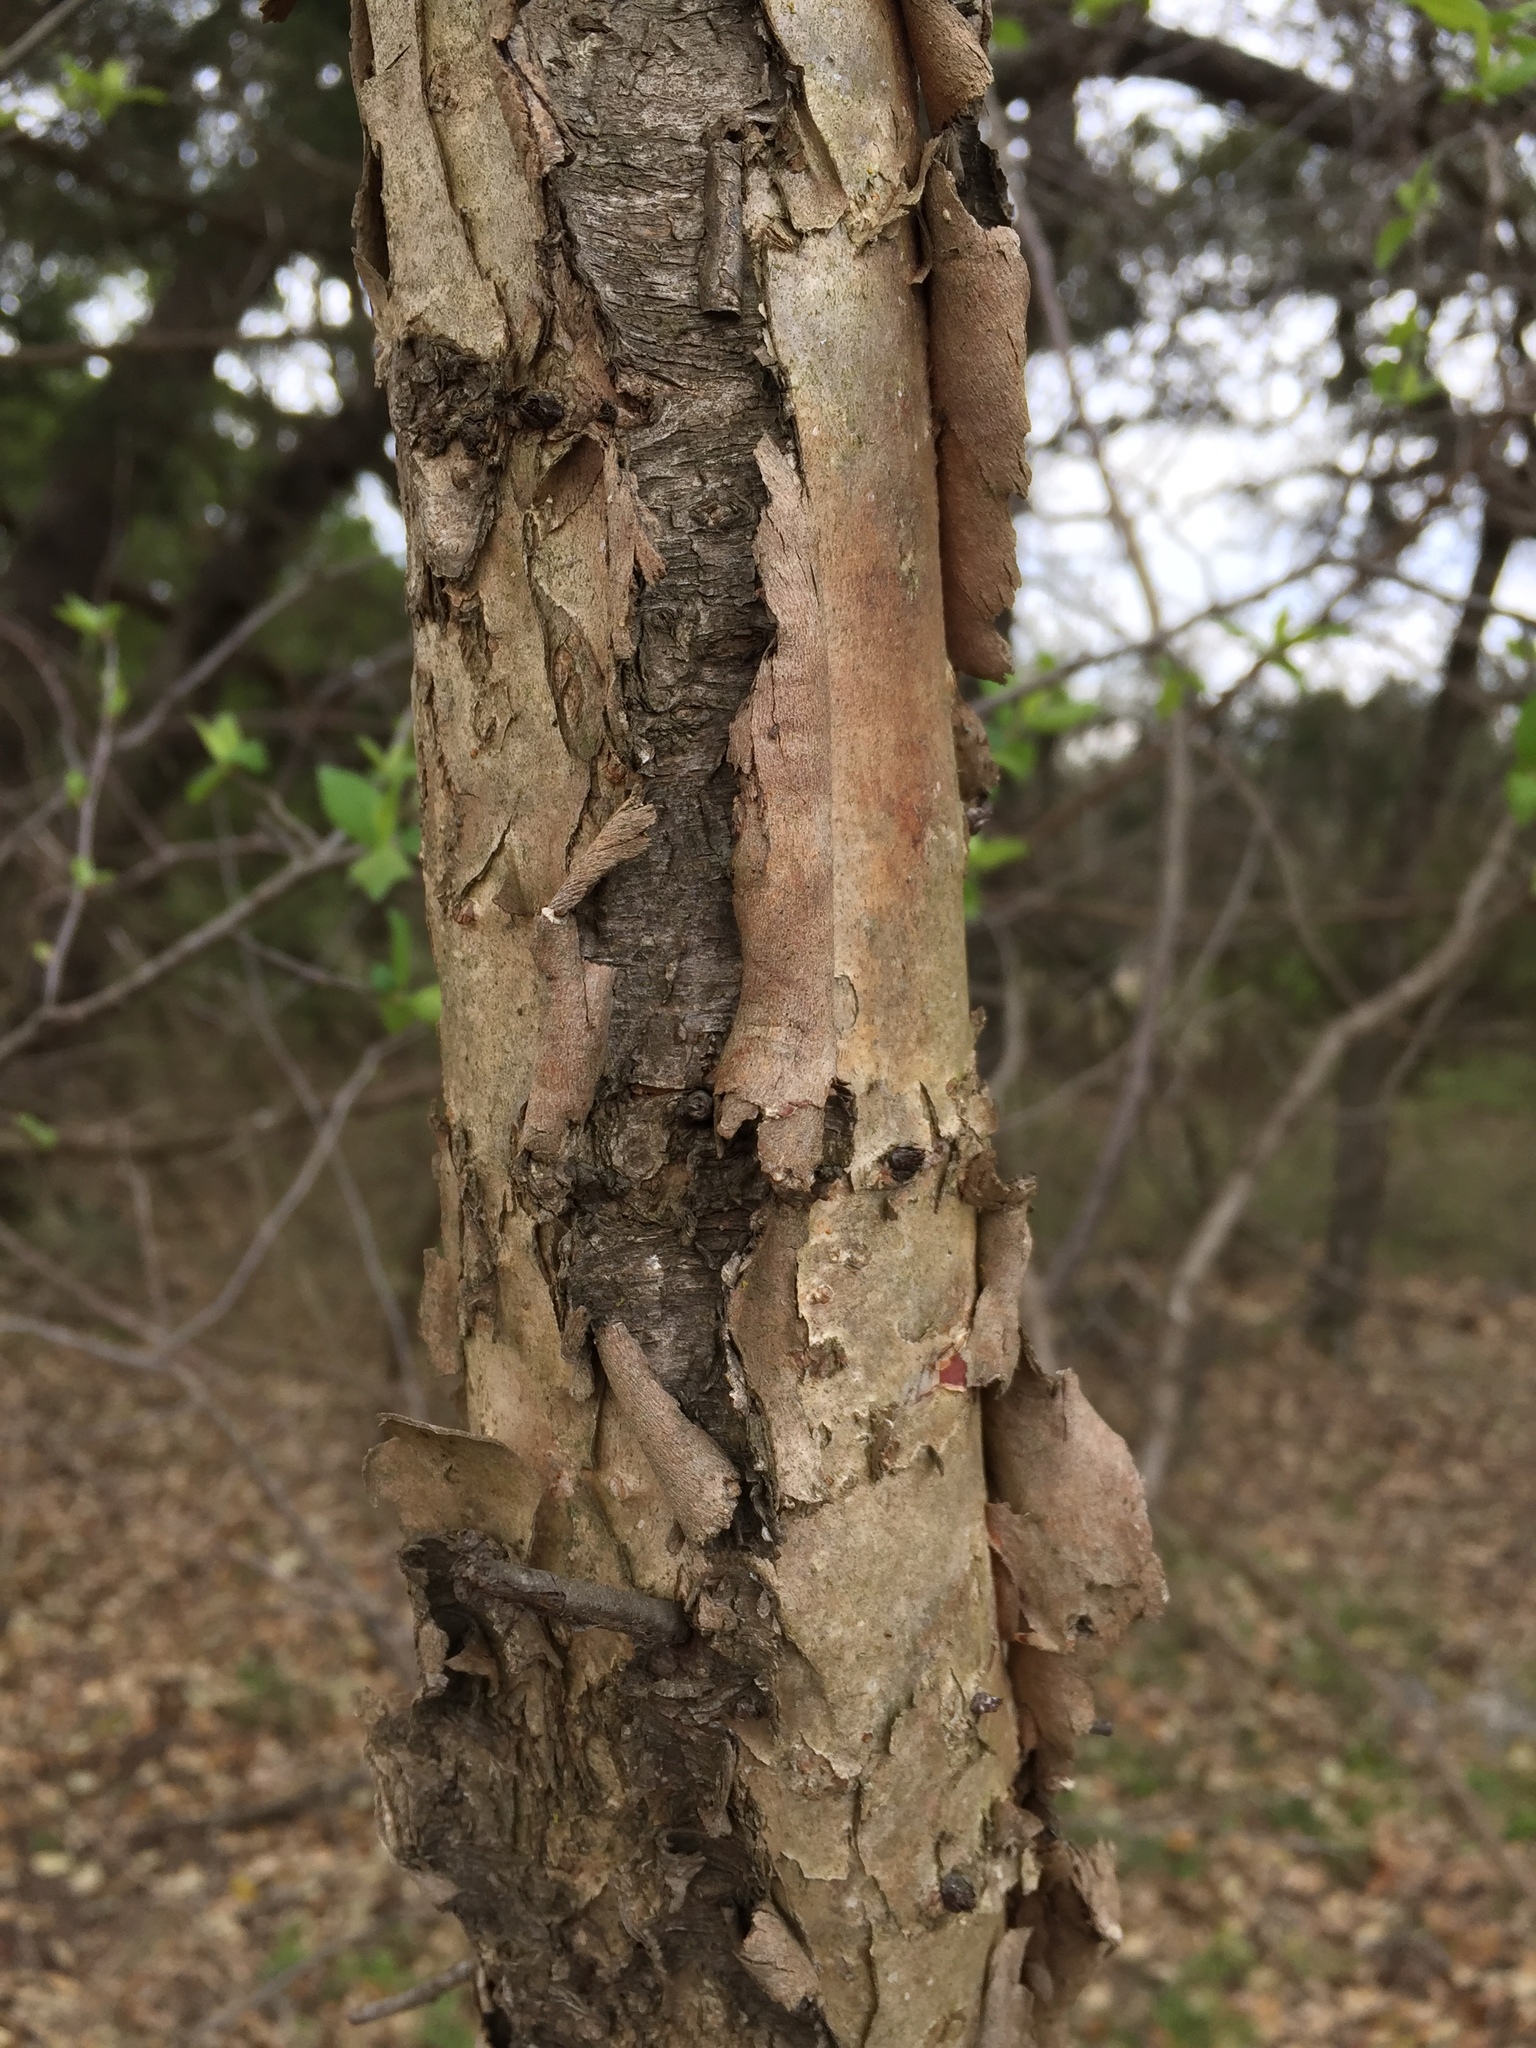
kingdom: Plantae
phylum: Tracheophyta
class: Magnoliopsida
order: Rosales
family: Rosaceae
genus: Prunus
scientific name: Prunus mexicana
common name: Mexican plum
